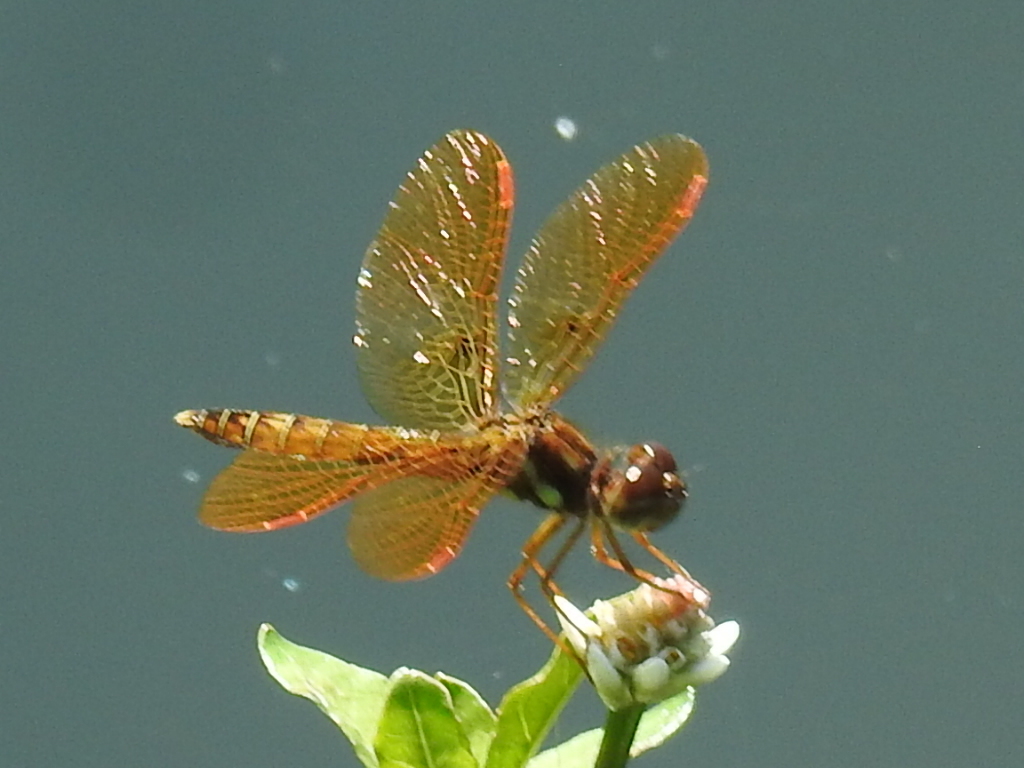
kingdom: Animalia
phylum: Arthropoda
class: Insecta
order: Odonata
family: Libellulidae
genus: Perithemis
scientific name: Perithemis tenera
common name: Eastern amberwing
